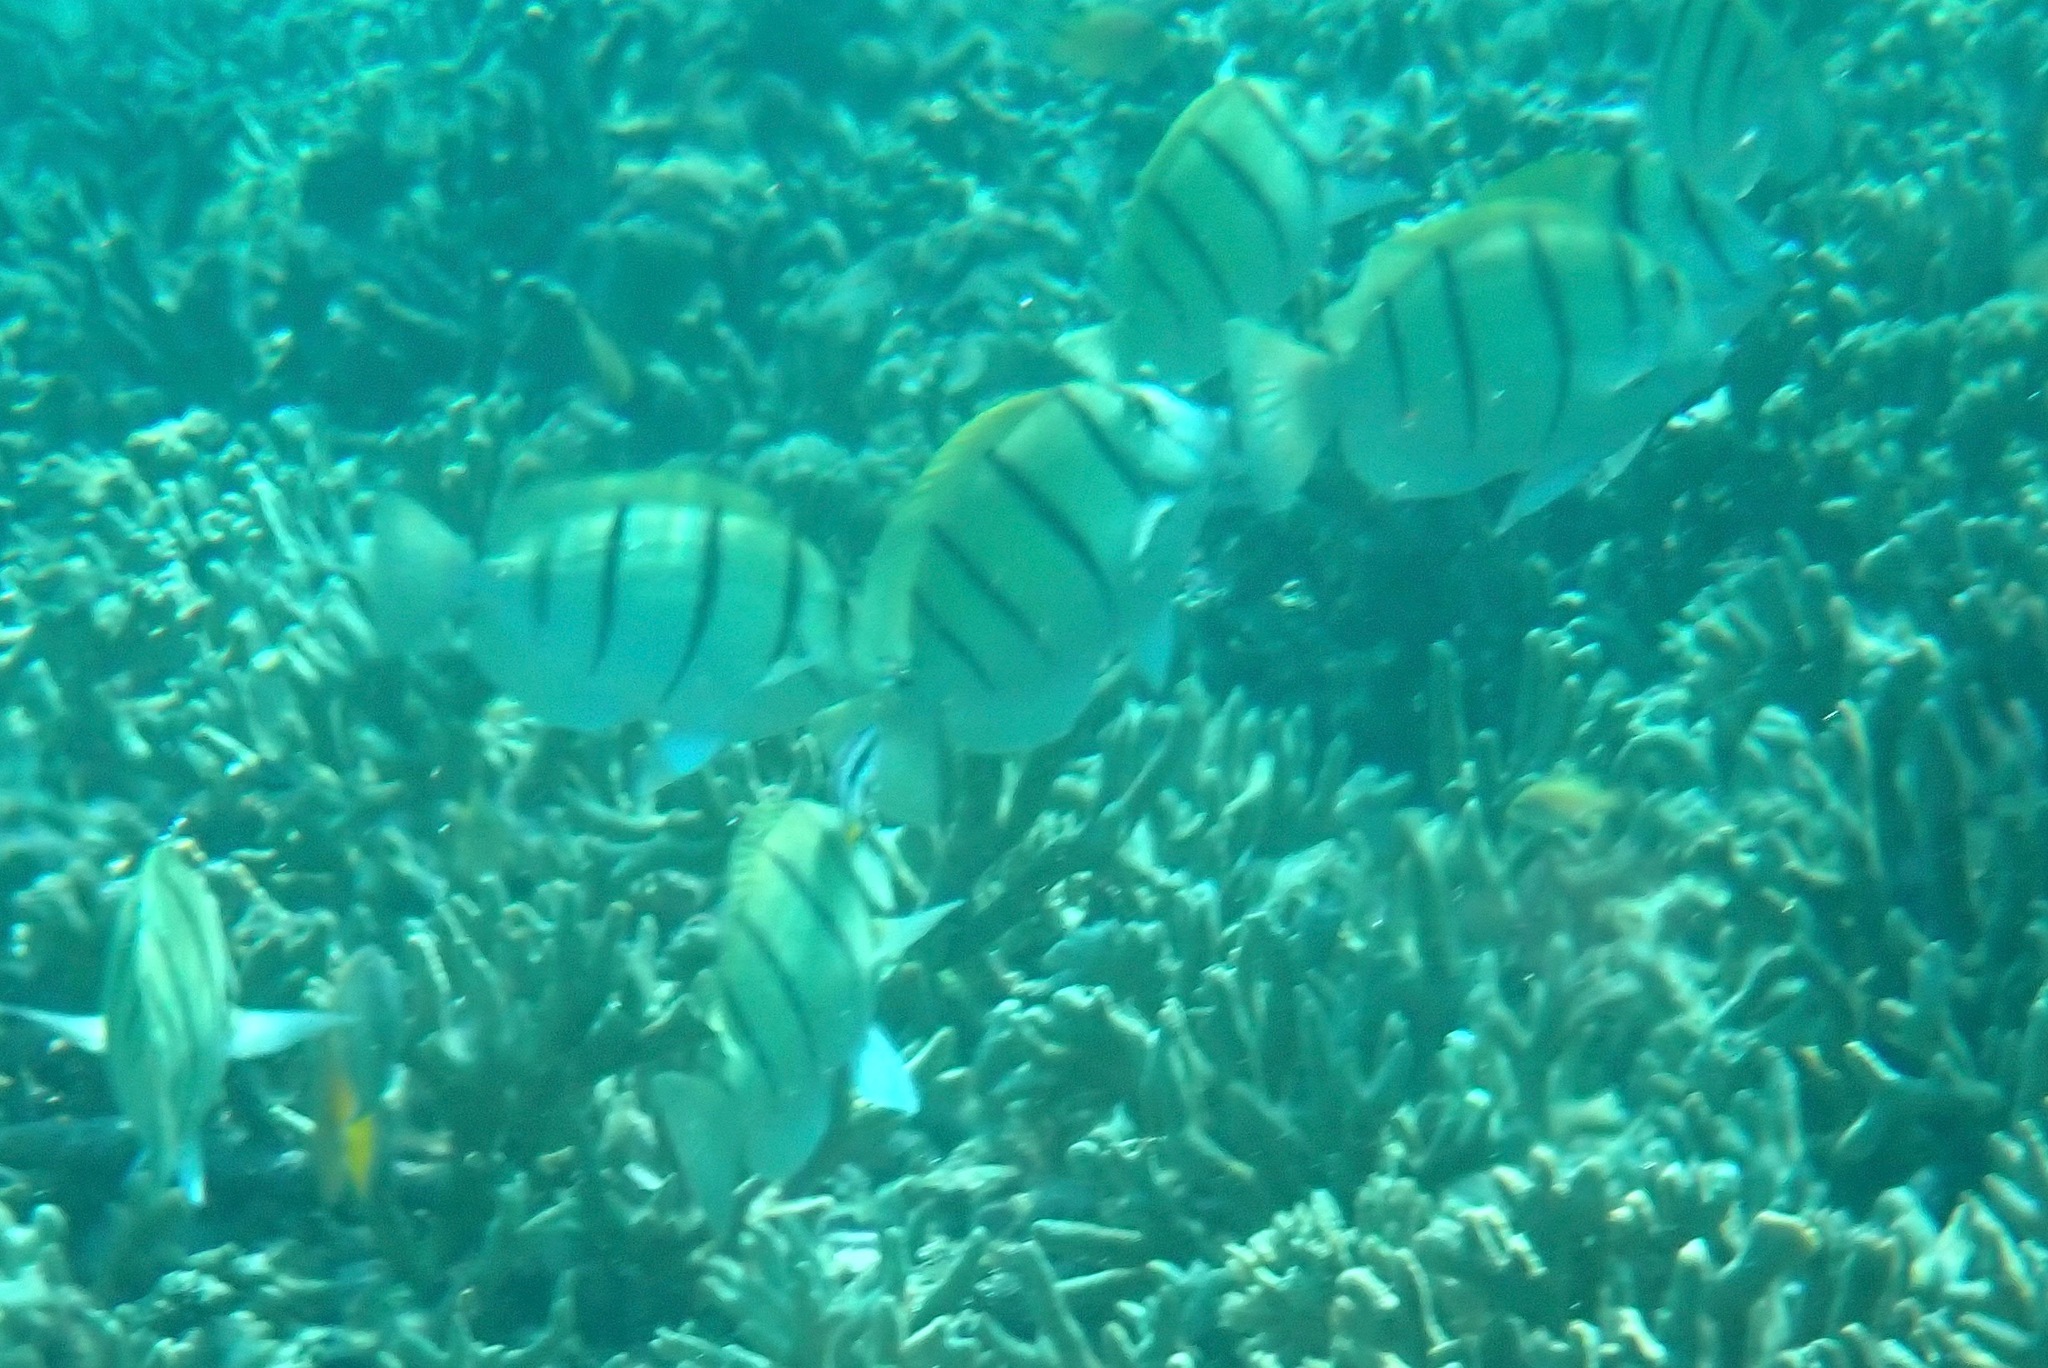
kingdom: Animalia
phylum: Chordata
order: Perciformes
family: Acanthuridae
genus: Acanthurus
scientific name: Acanthurus triostegus
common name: Convict surgeonfish
